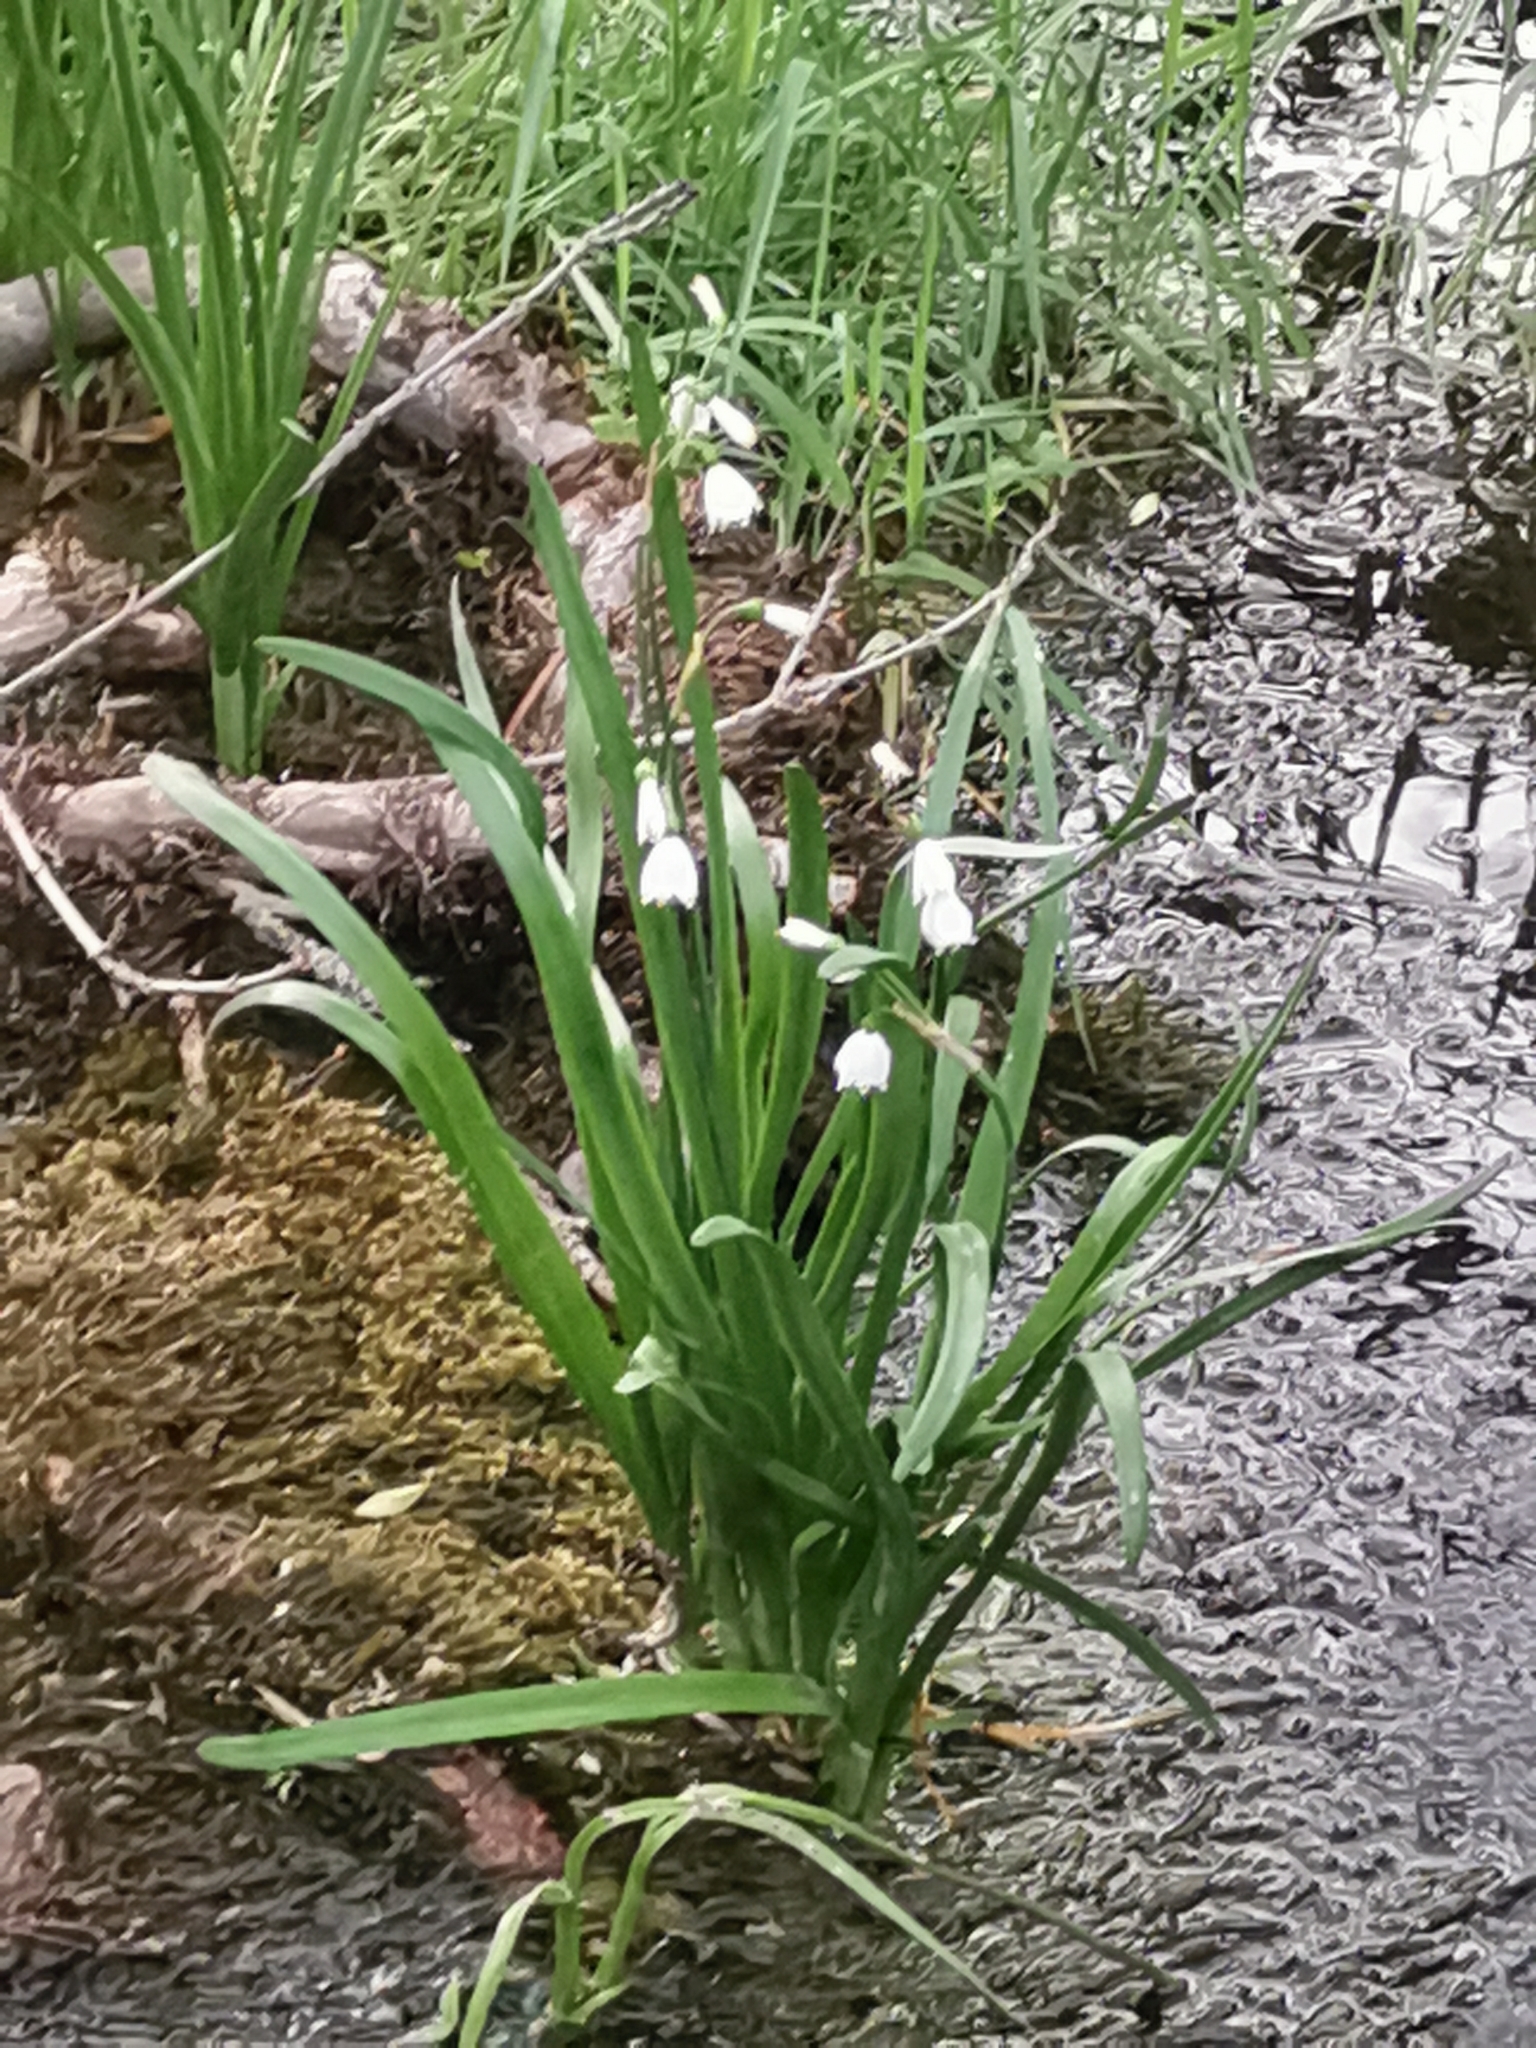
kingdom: Plantae
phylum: Tracheophyta
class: Liliopsida
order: Asparagales
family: Amaryllidaceae
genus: Leucojum
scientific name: Leucojum aestivum
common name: Summer snowflake
